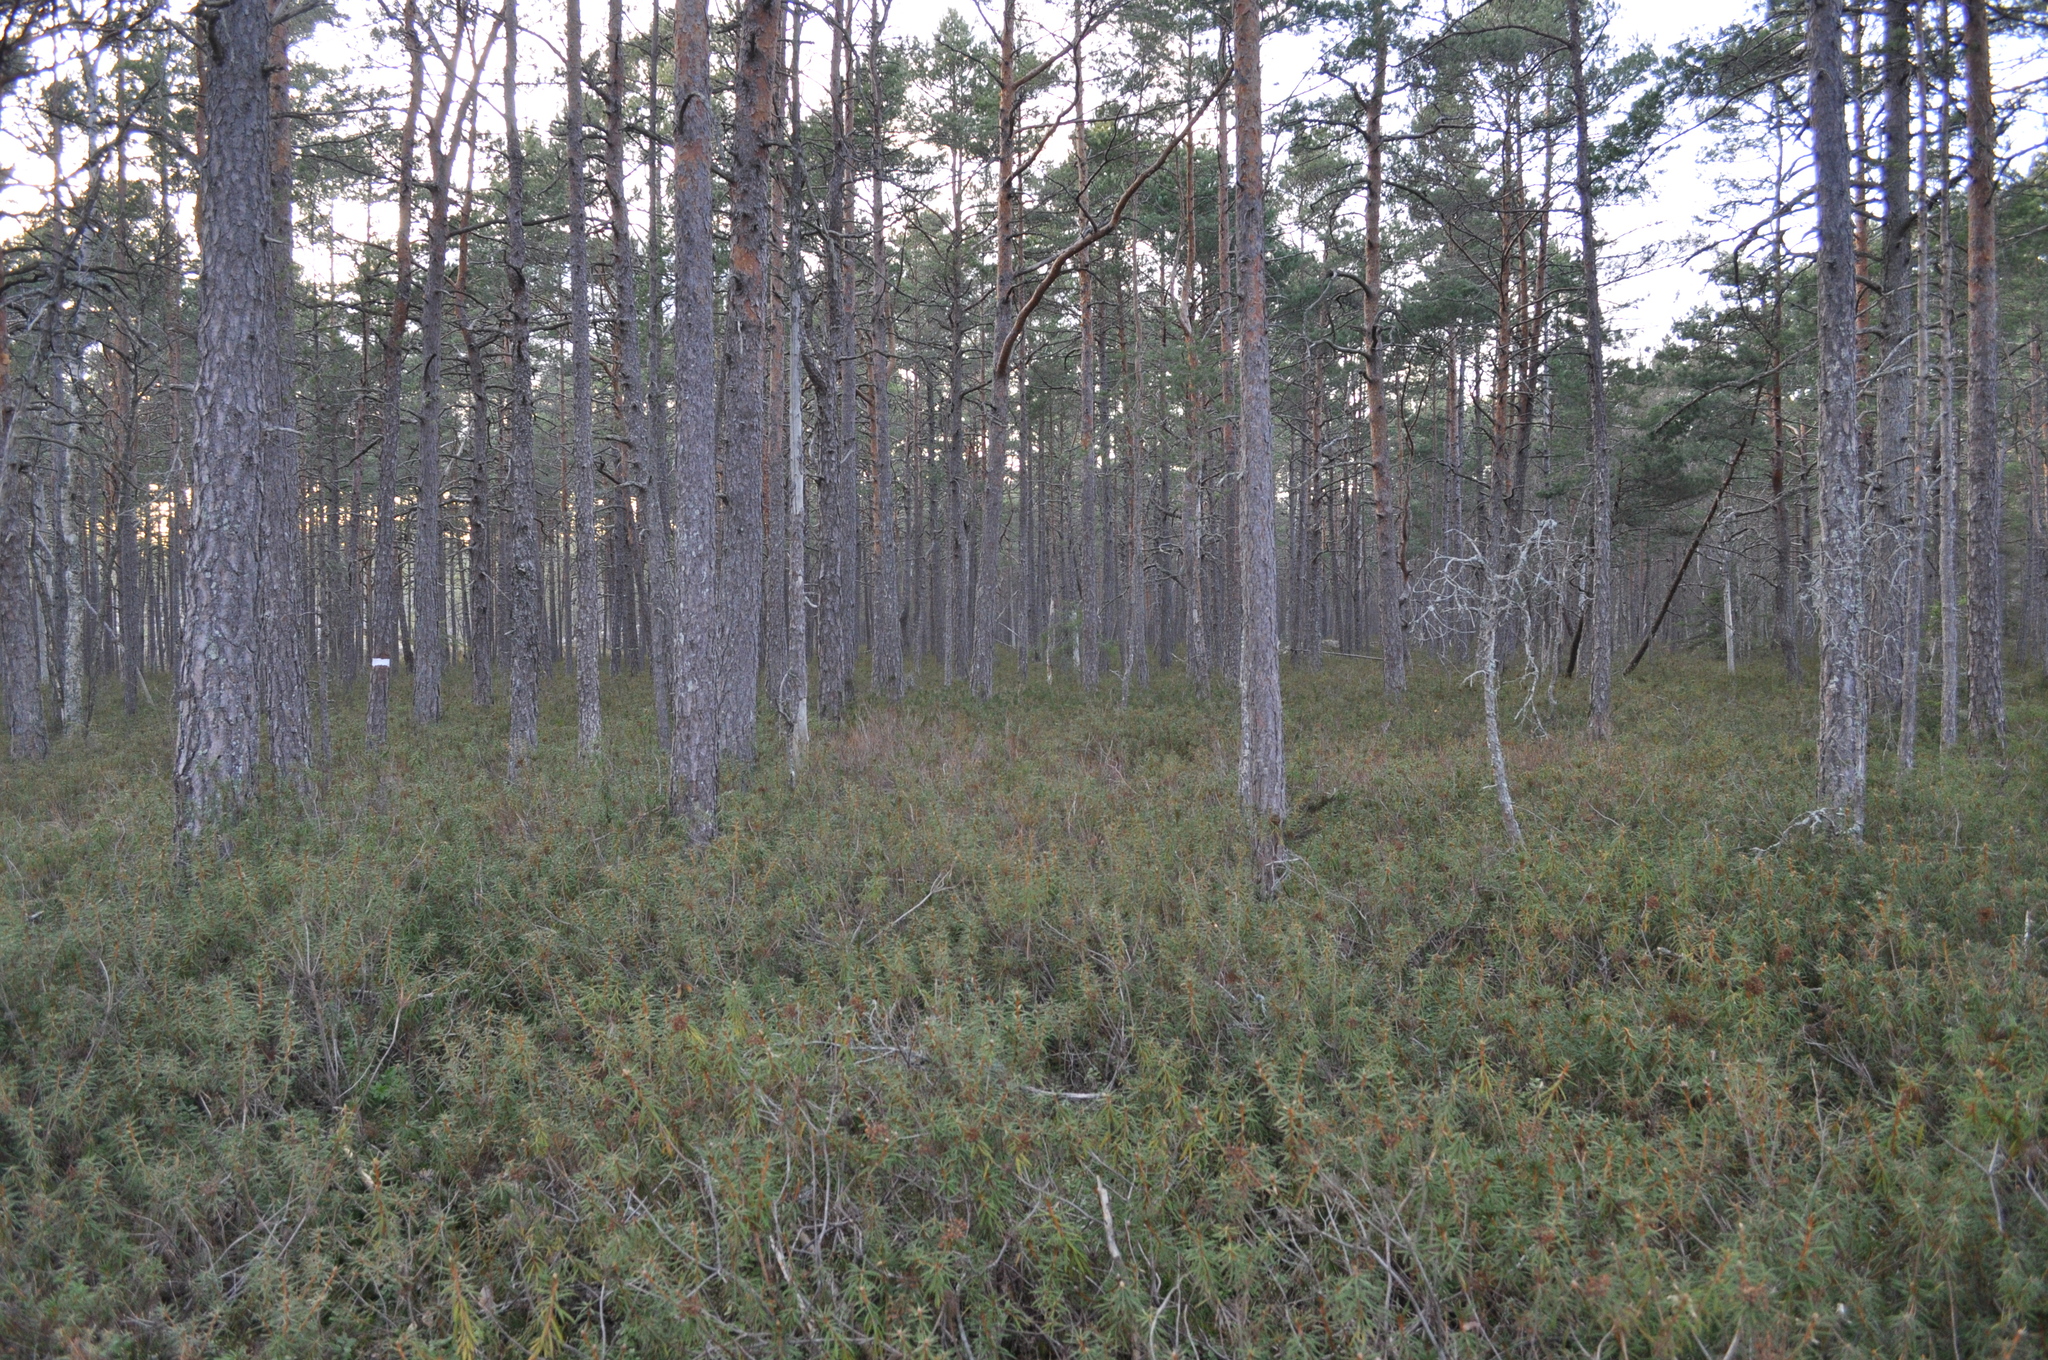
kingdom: Plantae
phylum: Tracheophyta
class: Magnoliopsida
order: Ericales
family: Ericaceae
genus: Rhododendron
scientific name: Rhododendron tomentosum
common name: Marsh labrador tea
